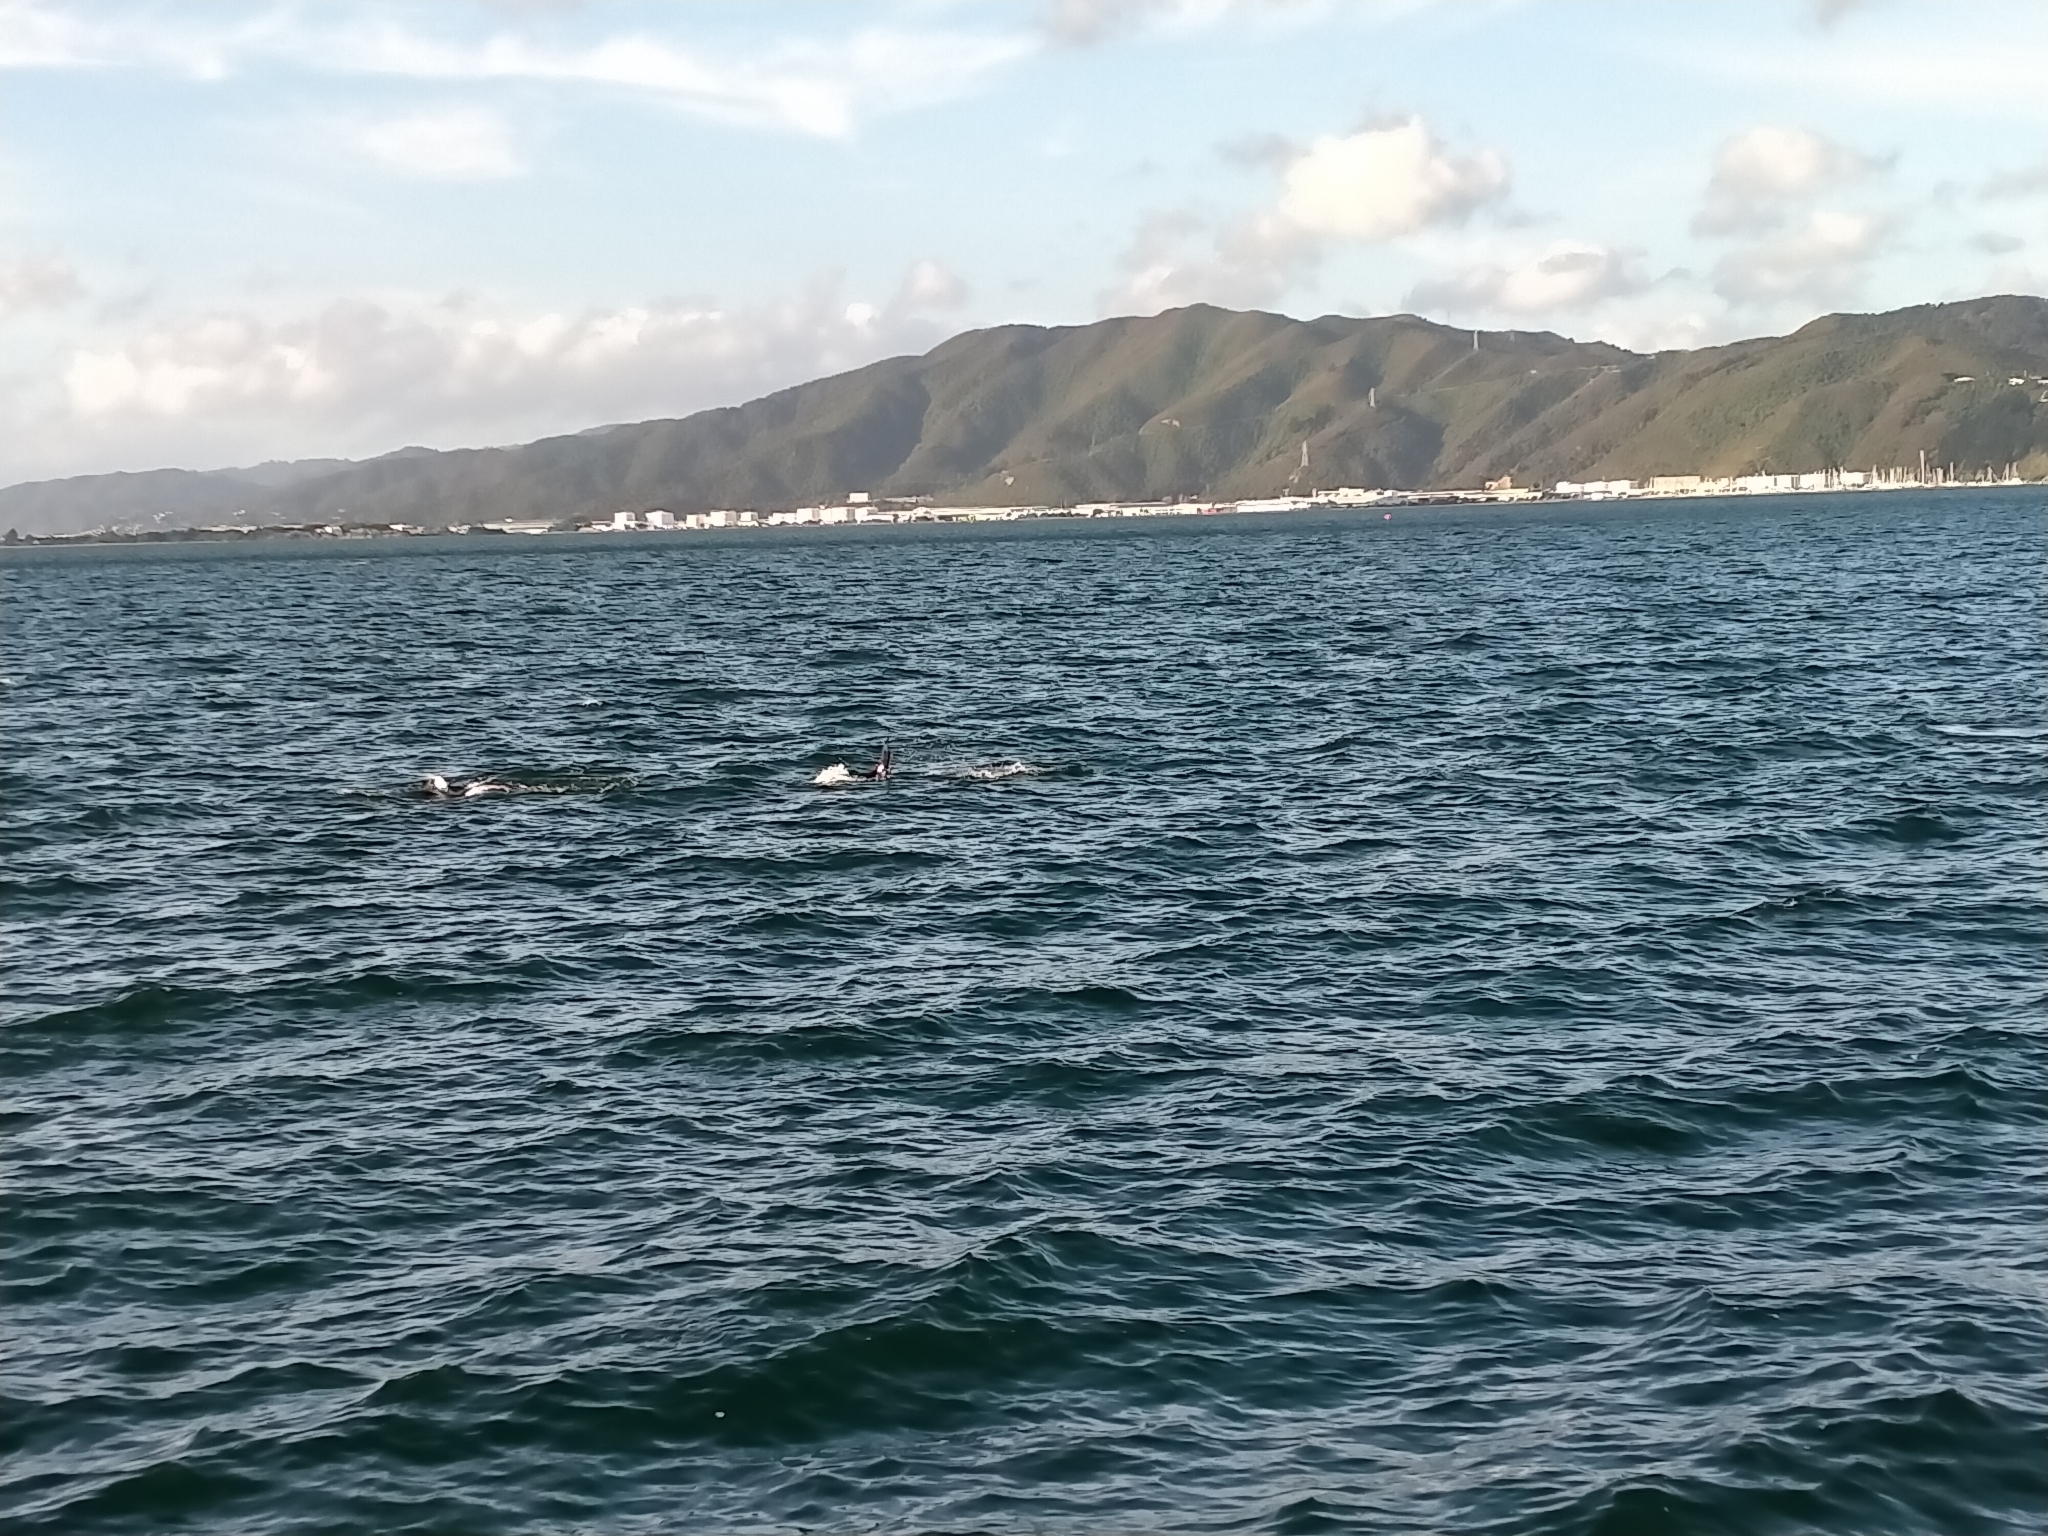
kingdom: Animalia
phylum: Chordata
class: Mammalia
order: Cetacea
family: Delphinidae
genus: Orcinus
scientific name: Orcinus orca
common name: Killer whale
